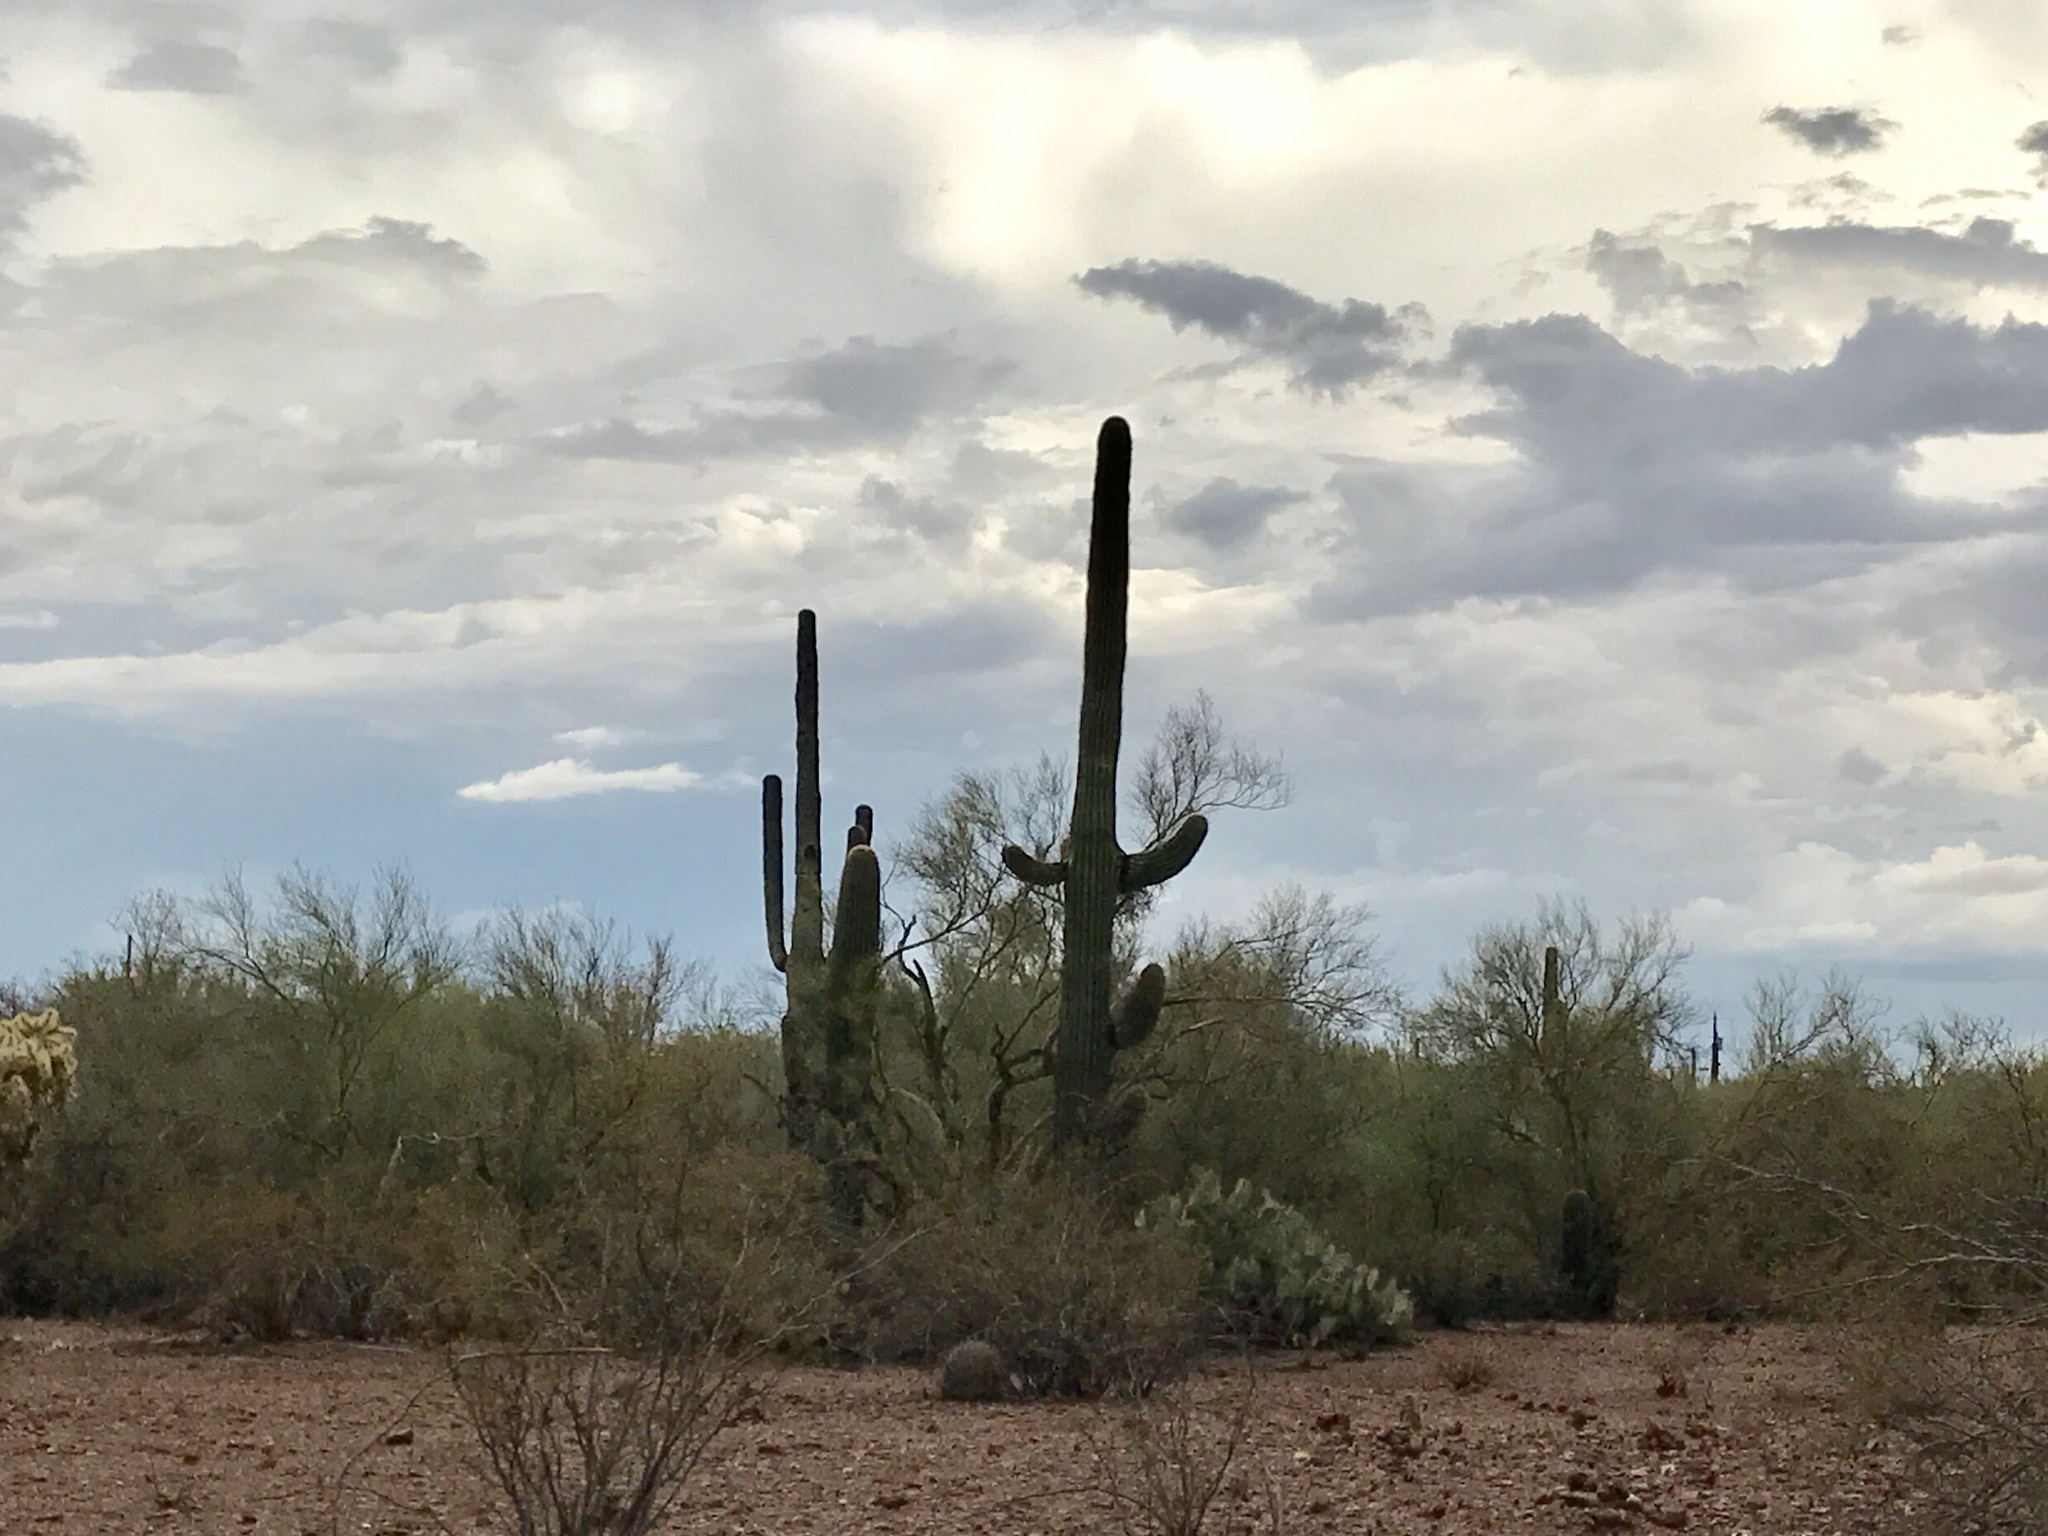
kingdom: Plantae
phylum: Tracheophyta
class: Magnoliopsida
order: Caryophyllales
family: Cactaceae
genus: Carnegiea
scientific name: Carnegiea gigantea
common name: Saguaro
